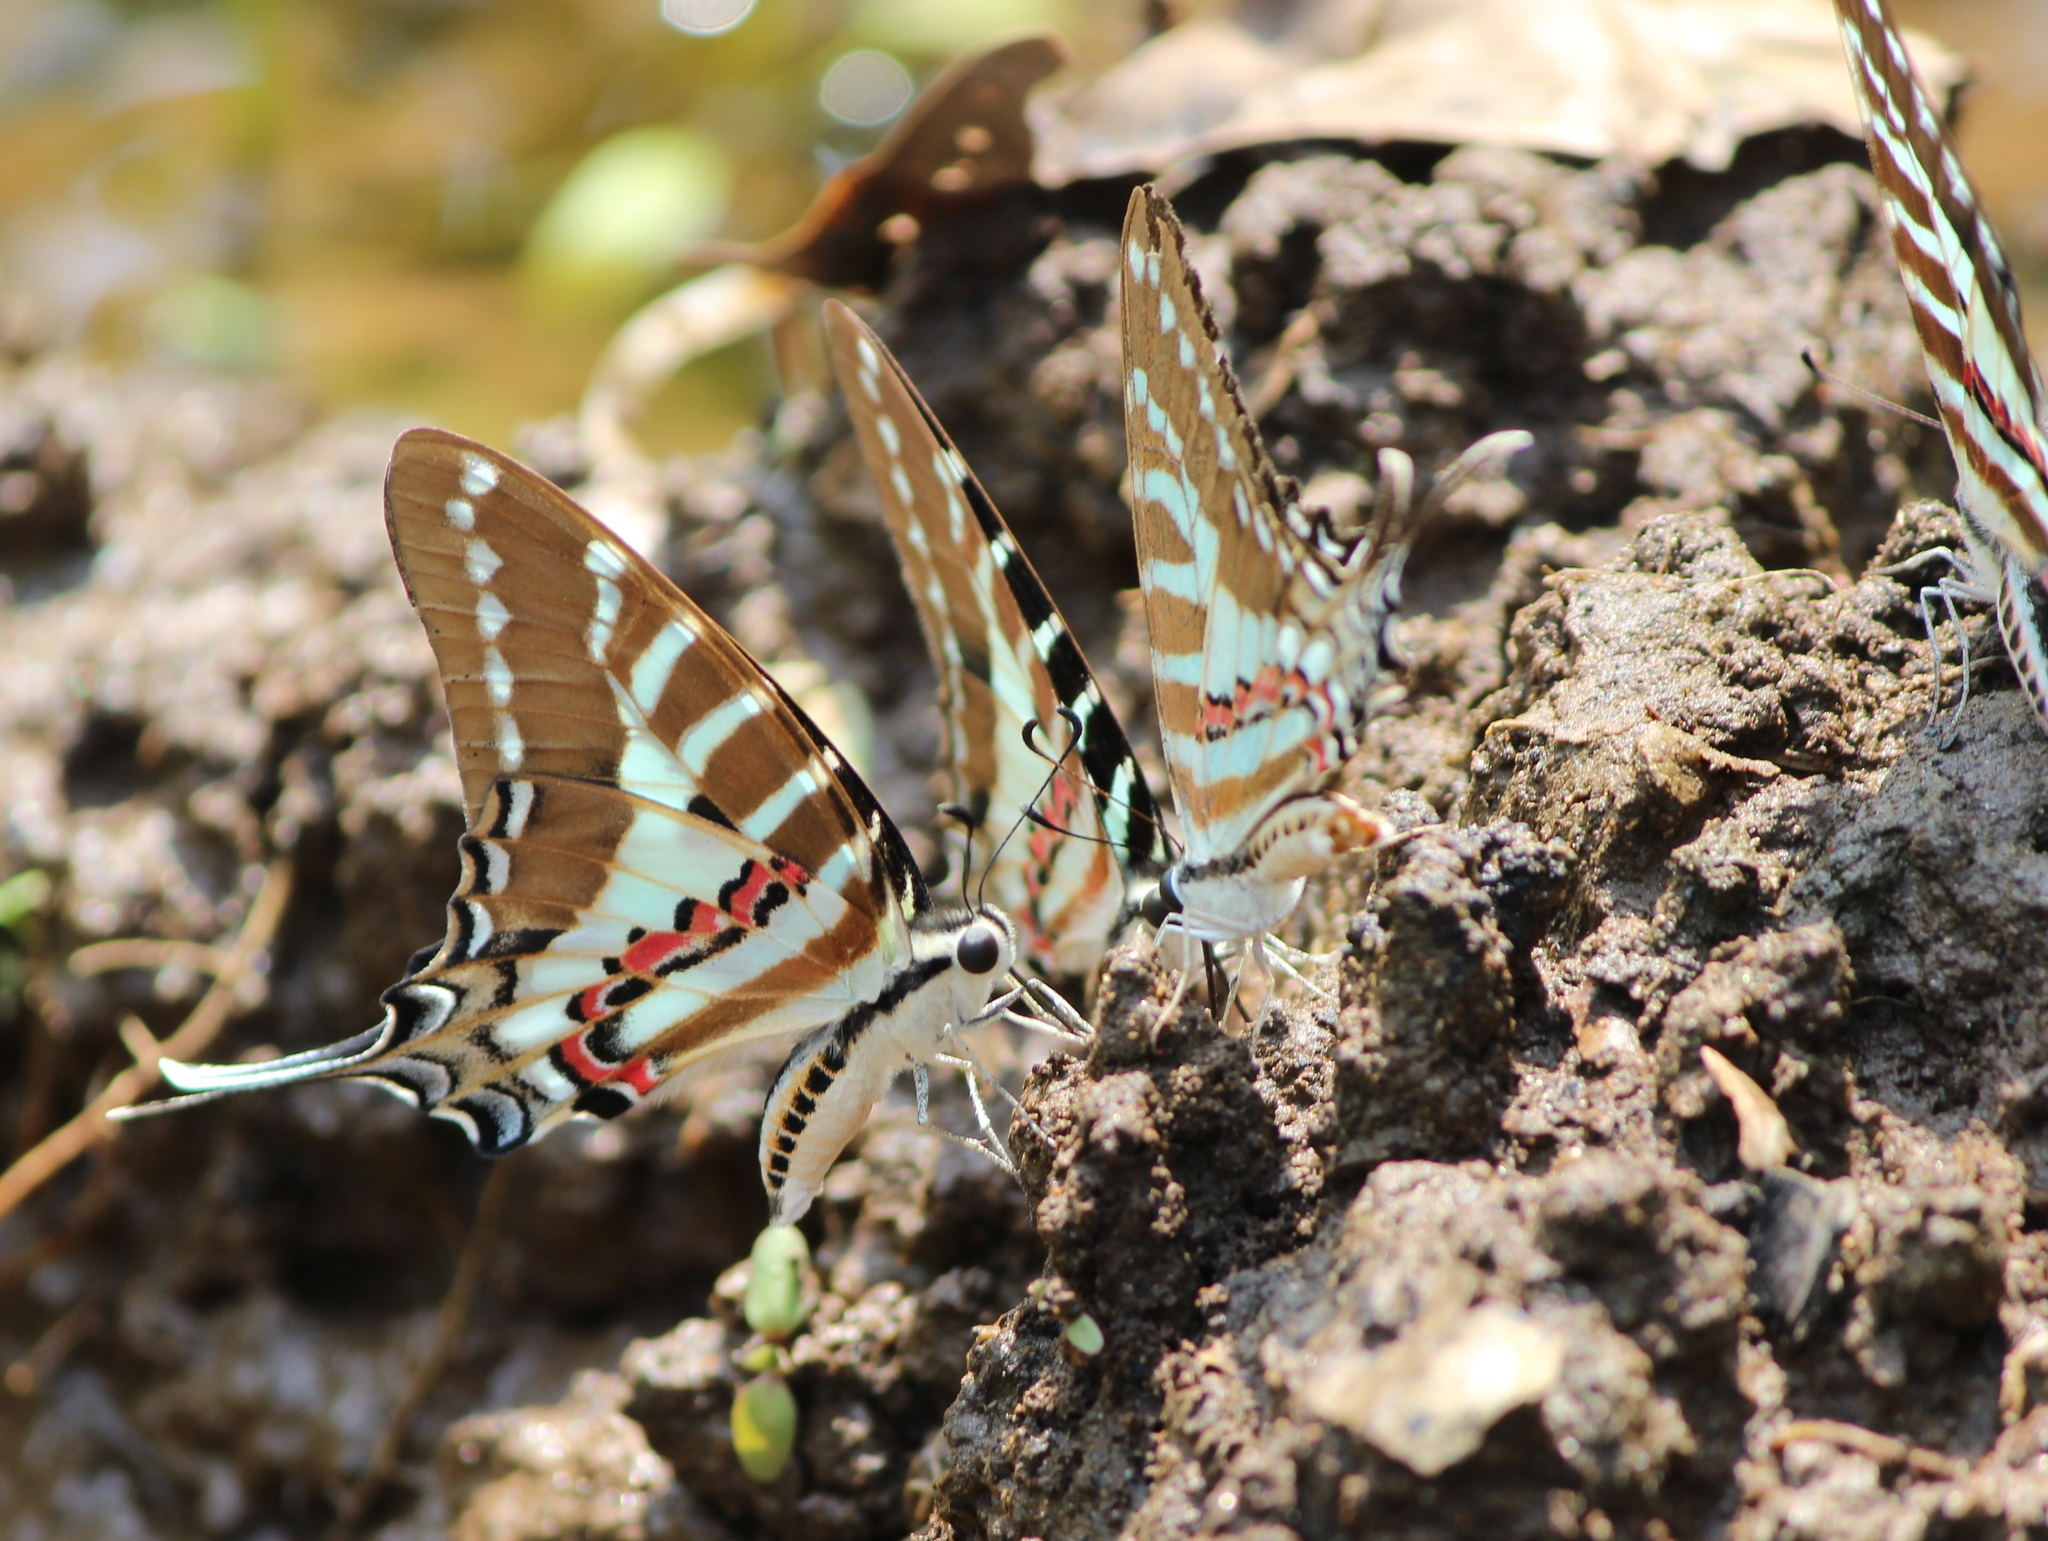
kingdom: Animalia
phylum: Arthropoda
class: Insecta
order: Lepidoptera
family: Papilionidae
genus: Graphium
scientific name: Graphium nomius
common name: Spot swordtail
